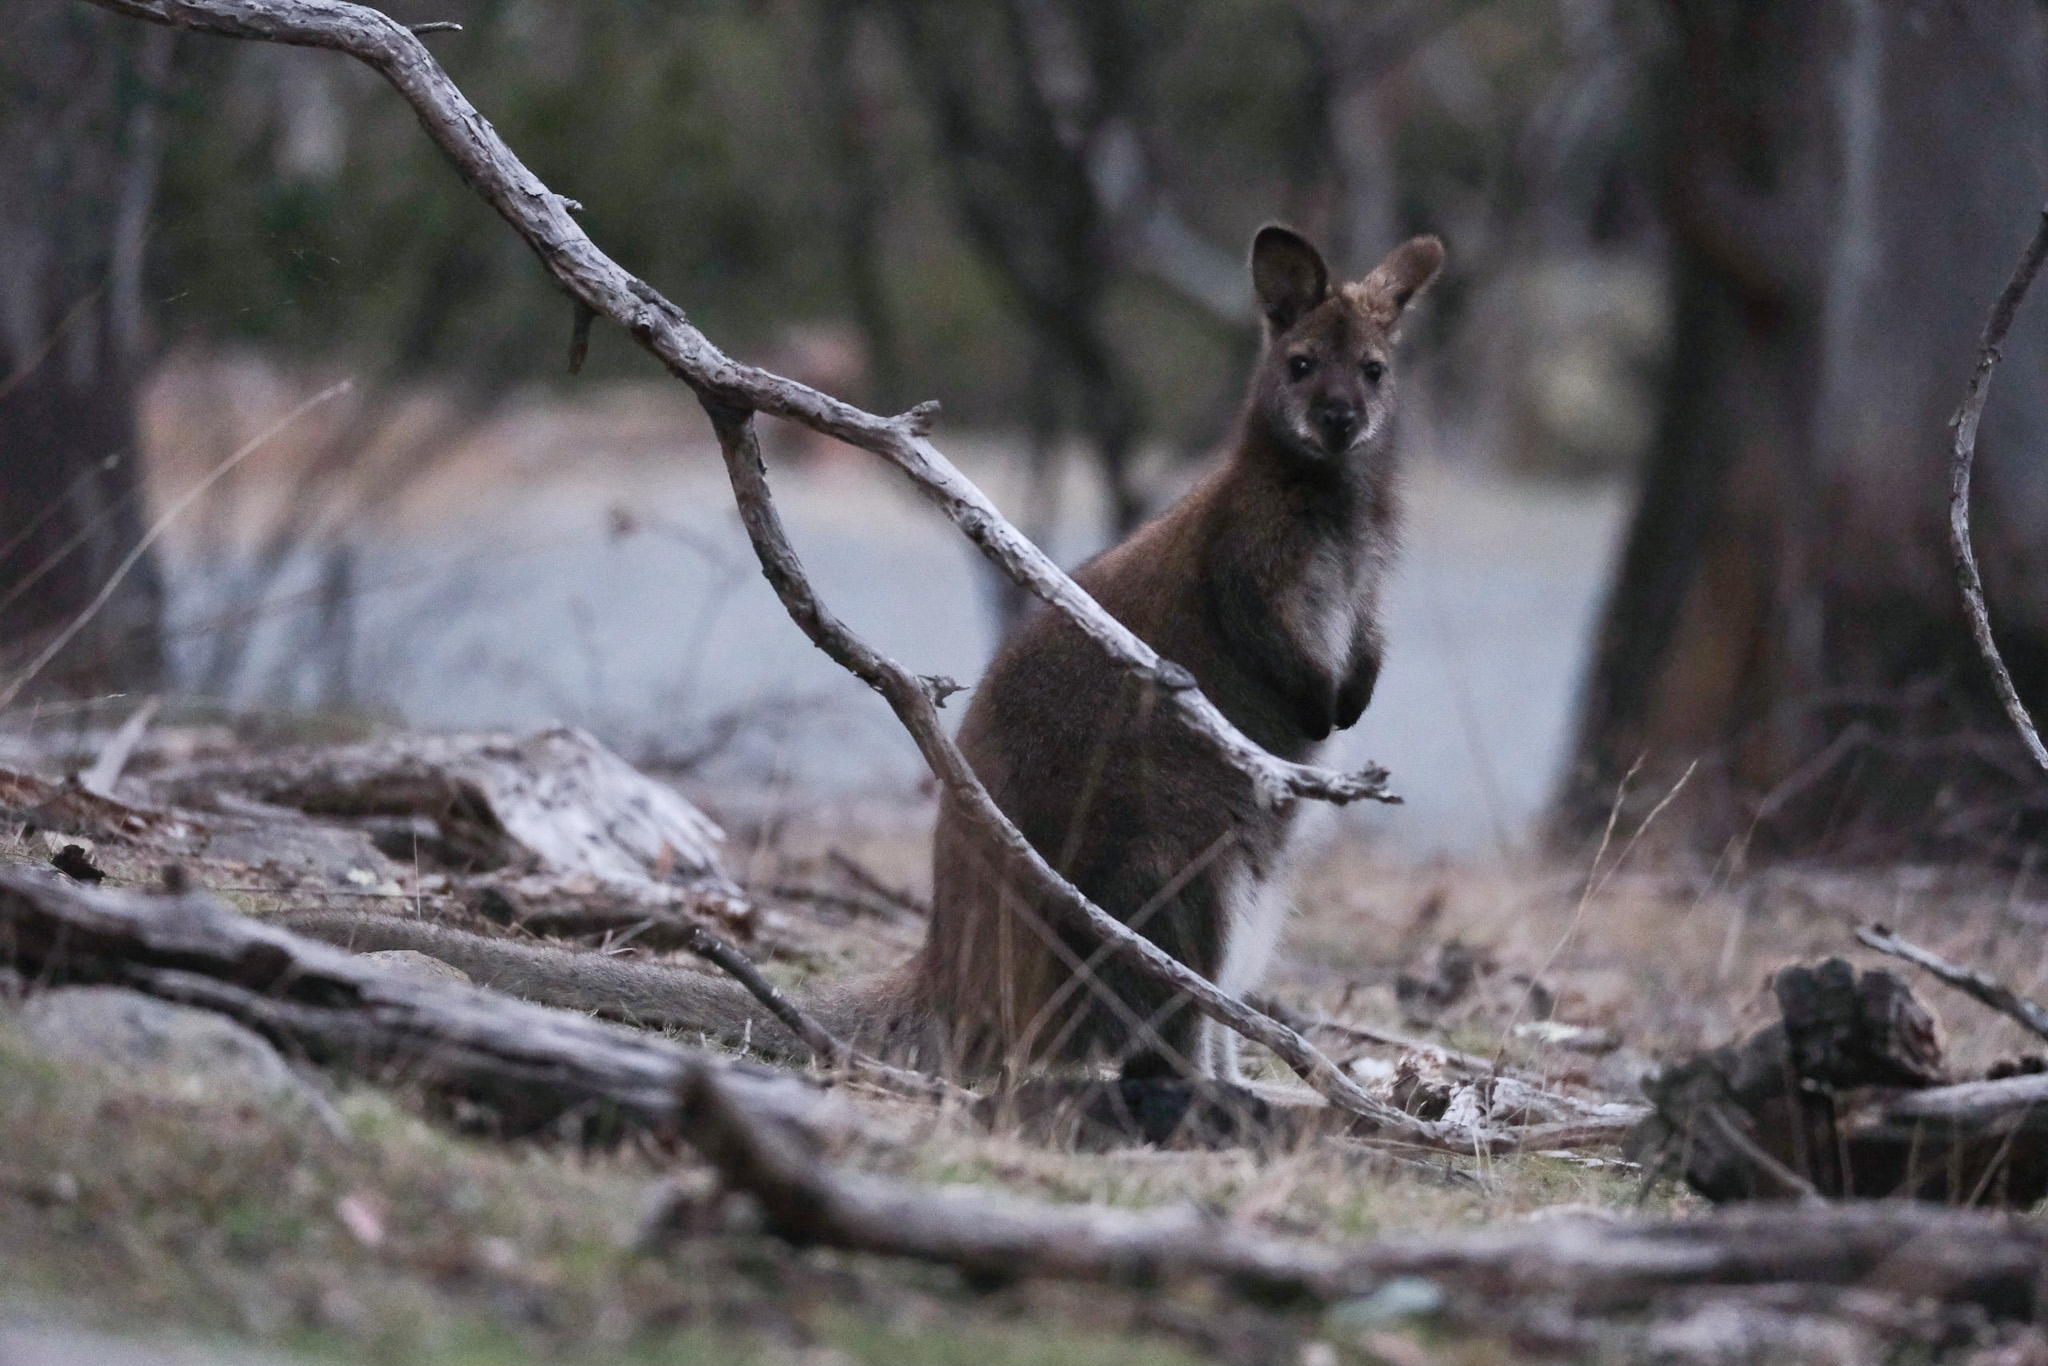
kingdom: Animalia
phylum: Chordata
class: Mammalia
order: Diprotodontia
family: Macropodidae
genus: Notamacropus
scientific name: Notamacropus rufogriseus
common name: Red-necked wallaby
